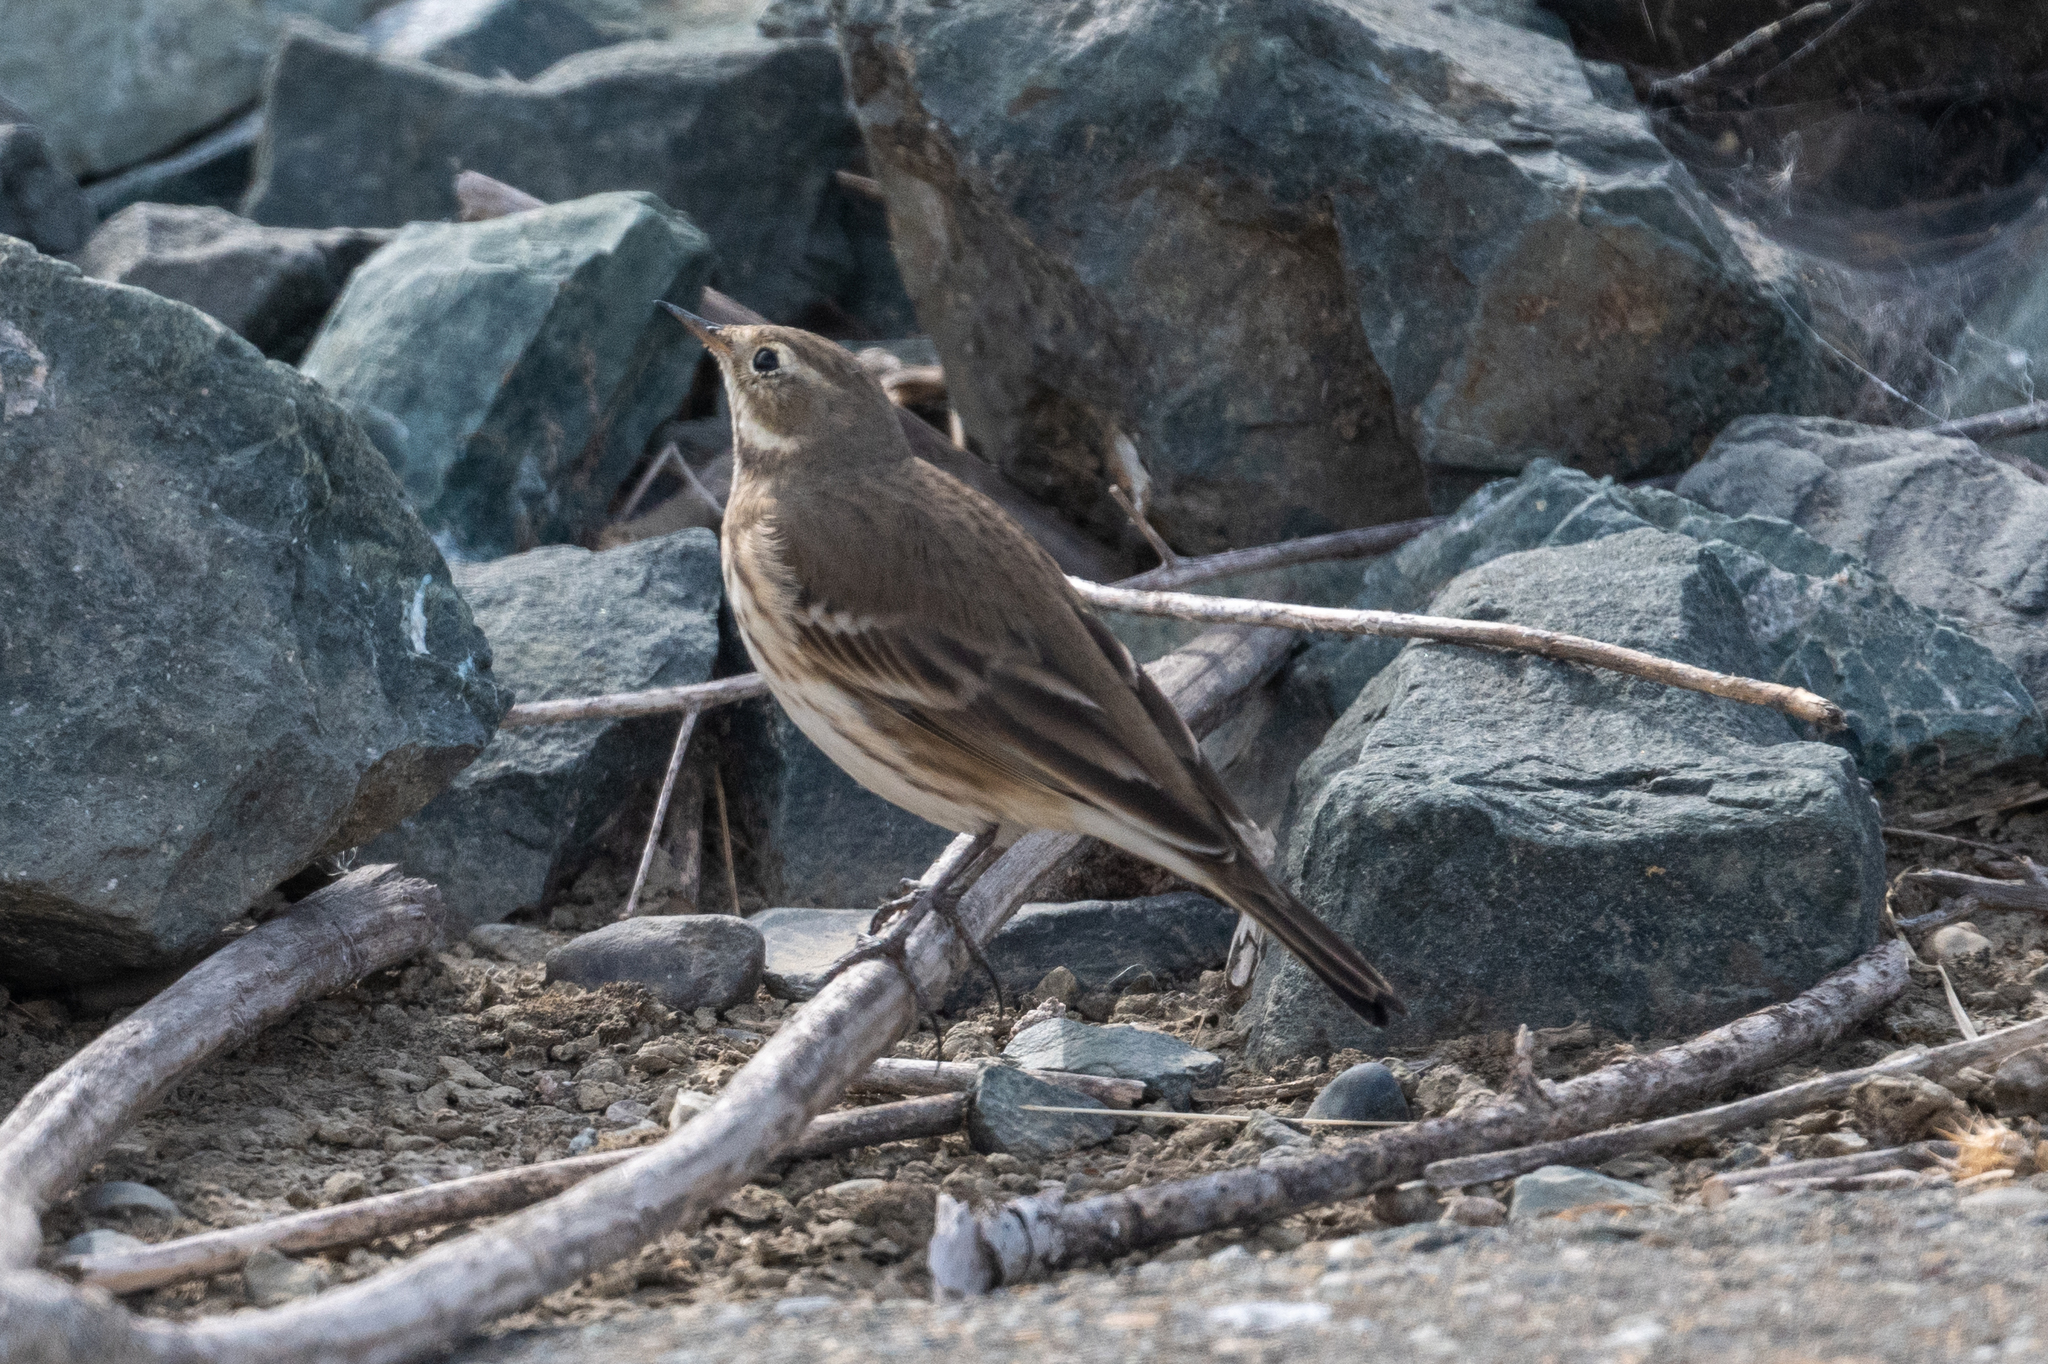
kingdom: Animalia
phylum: Chordata
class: Aves
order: Passeriformes
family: Motacillidae
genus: Anthus
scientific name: Anthus rubescens
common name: Buff-bellied pipit
